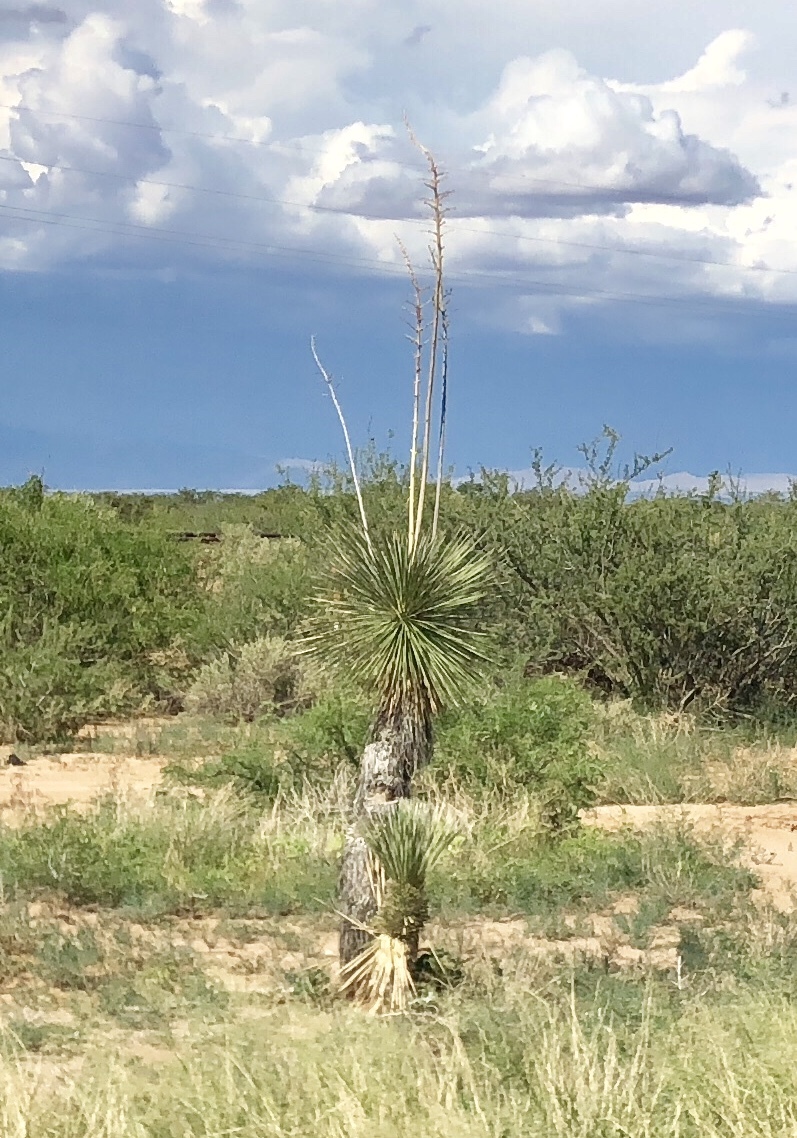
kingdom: Plantae
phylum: Tracheophyta
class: Liliopsida
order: Asparagales
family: Asparagaceae
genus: Yucca
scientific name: Yucca elata
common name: Palmella
